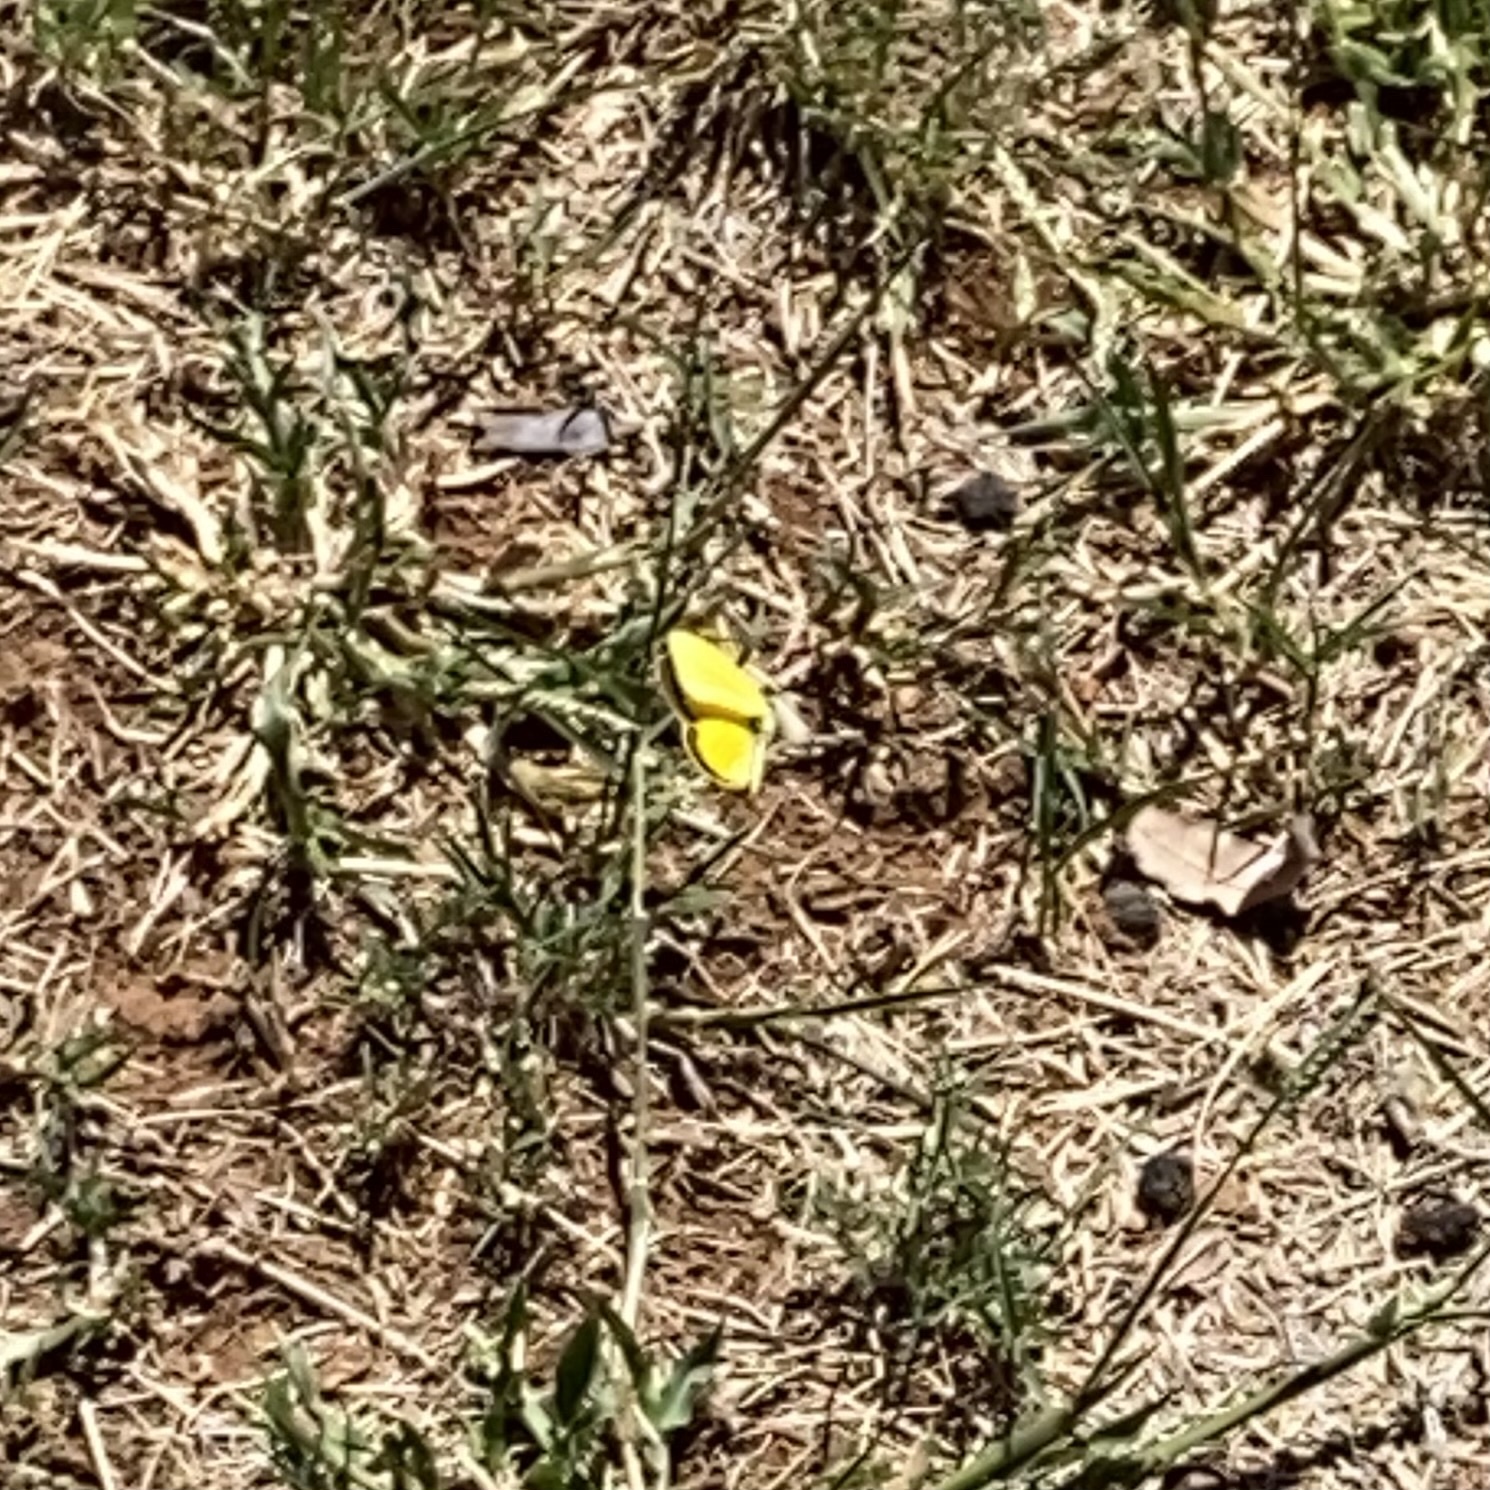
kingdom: Animalia
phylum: Arthropoda
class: Insecta
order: Lepidoptera
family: Pieridae
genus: Eurema
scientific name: Eurema brigitta
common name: Small grass yellow
